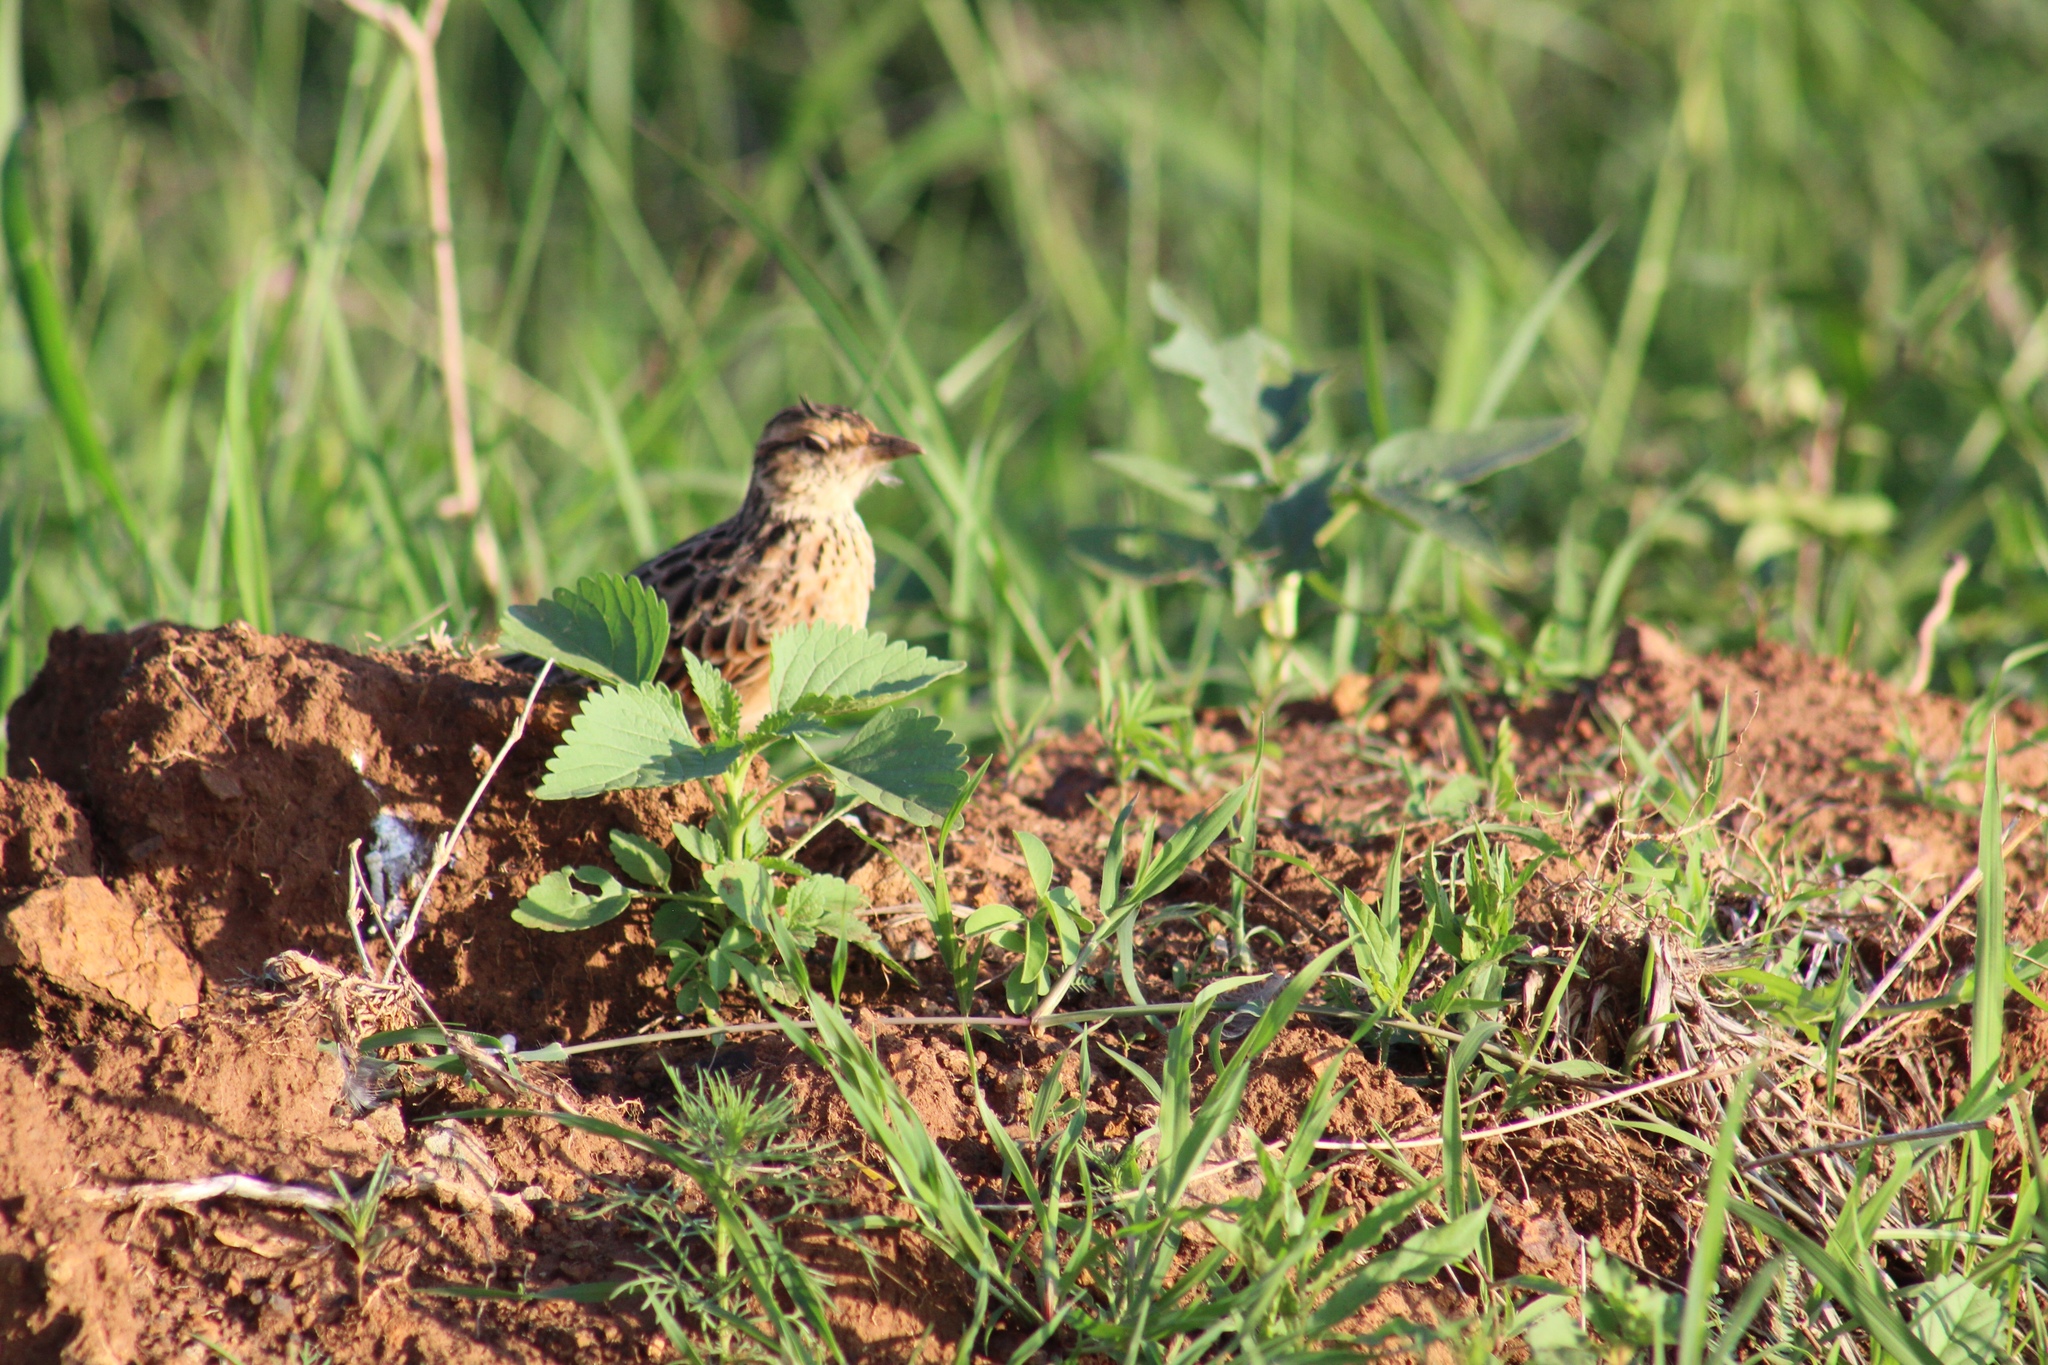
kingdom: Animalia
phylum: Chordata
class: Aves
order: Passeriformes
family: Alaudidae
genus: Mirafra
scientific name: Mirafra africana
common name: Rufous-naped lark
